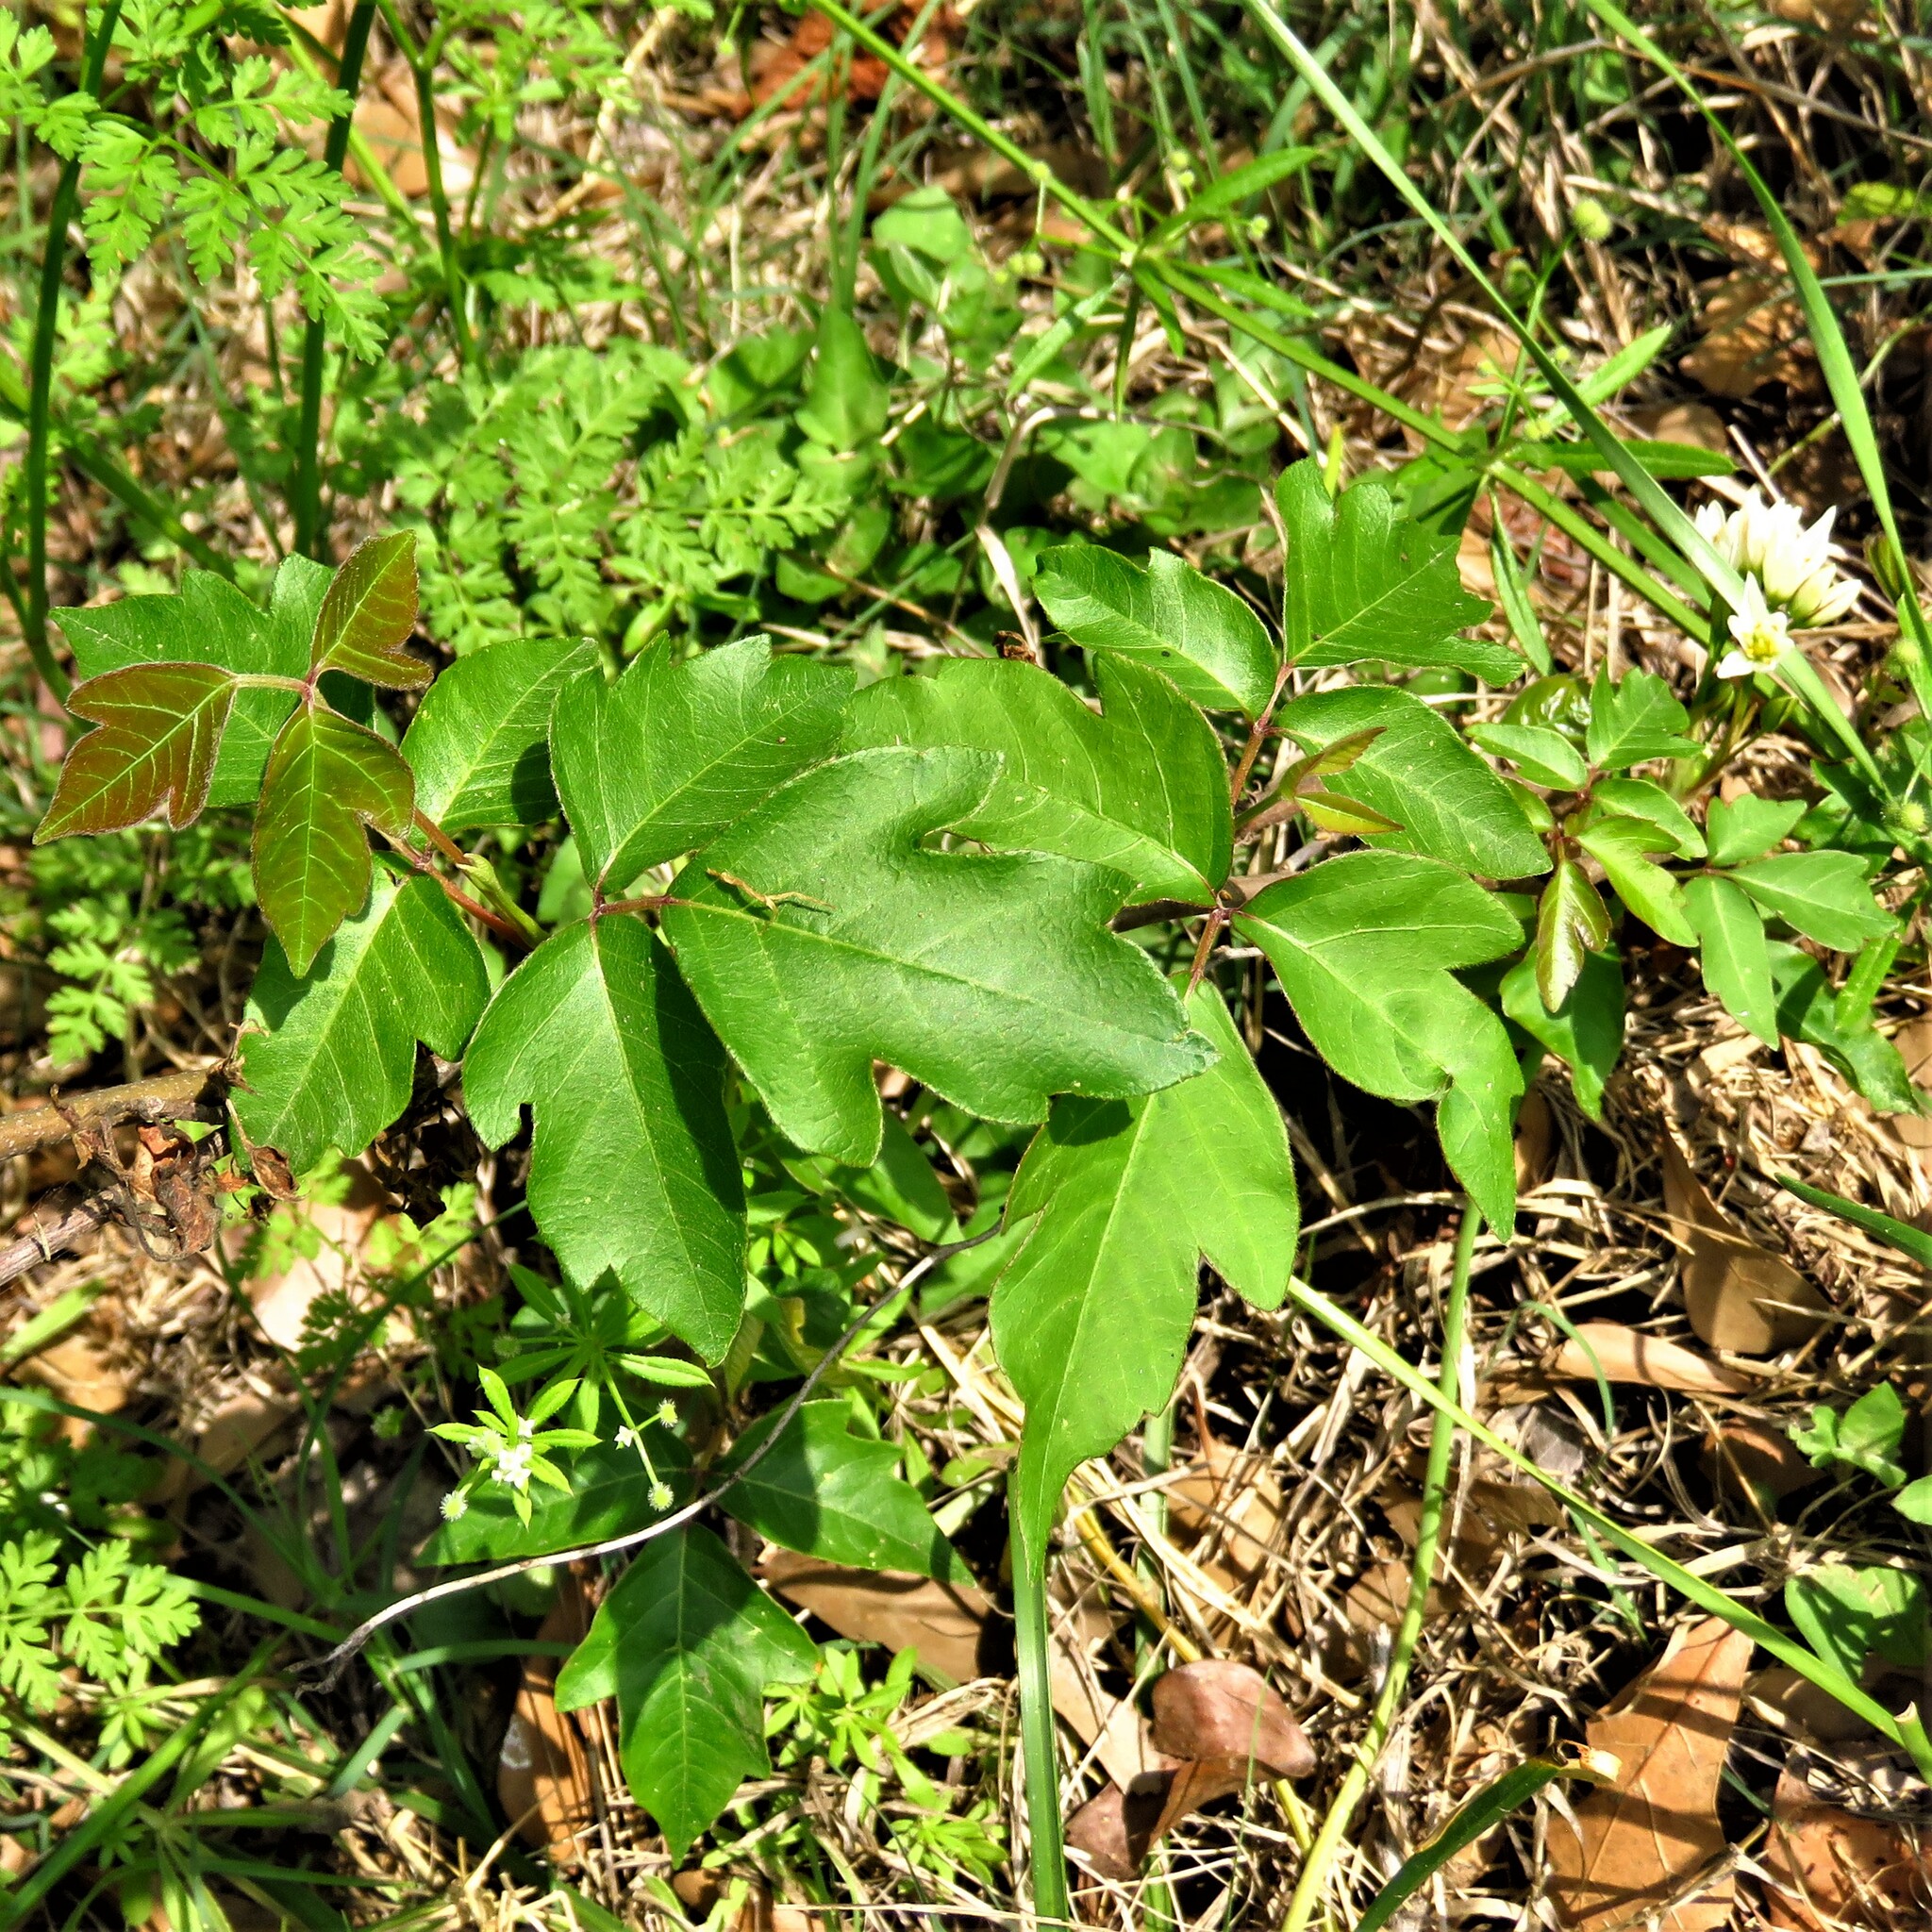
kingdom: Plantae
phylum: Tracheophyta
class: Magnoliopsida
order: Sapindales
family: Anacardiaceae
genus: Toxicodendron
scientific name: Toxicodendron radicans
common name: Poison ivy
